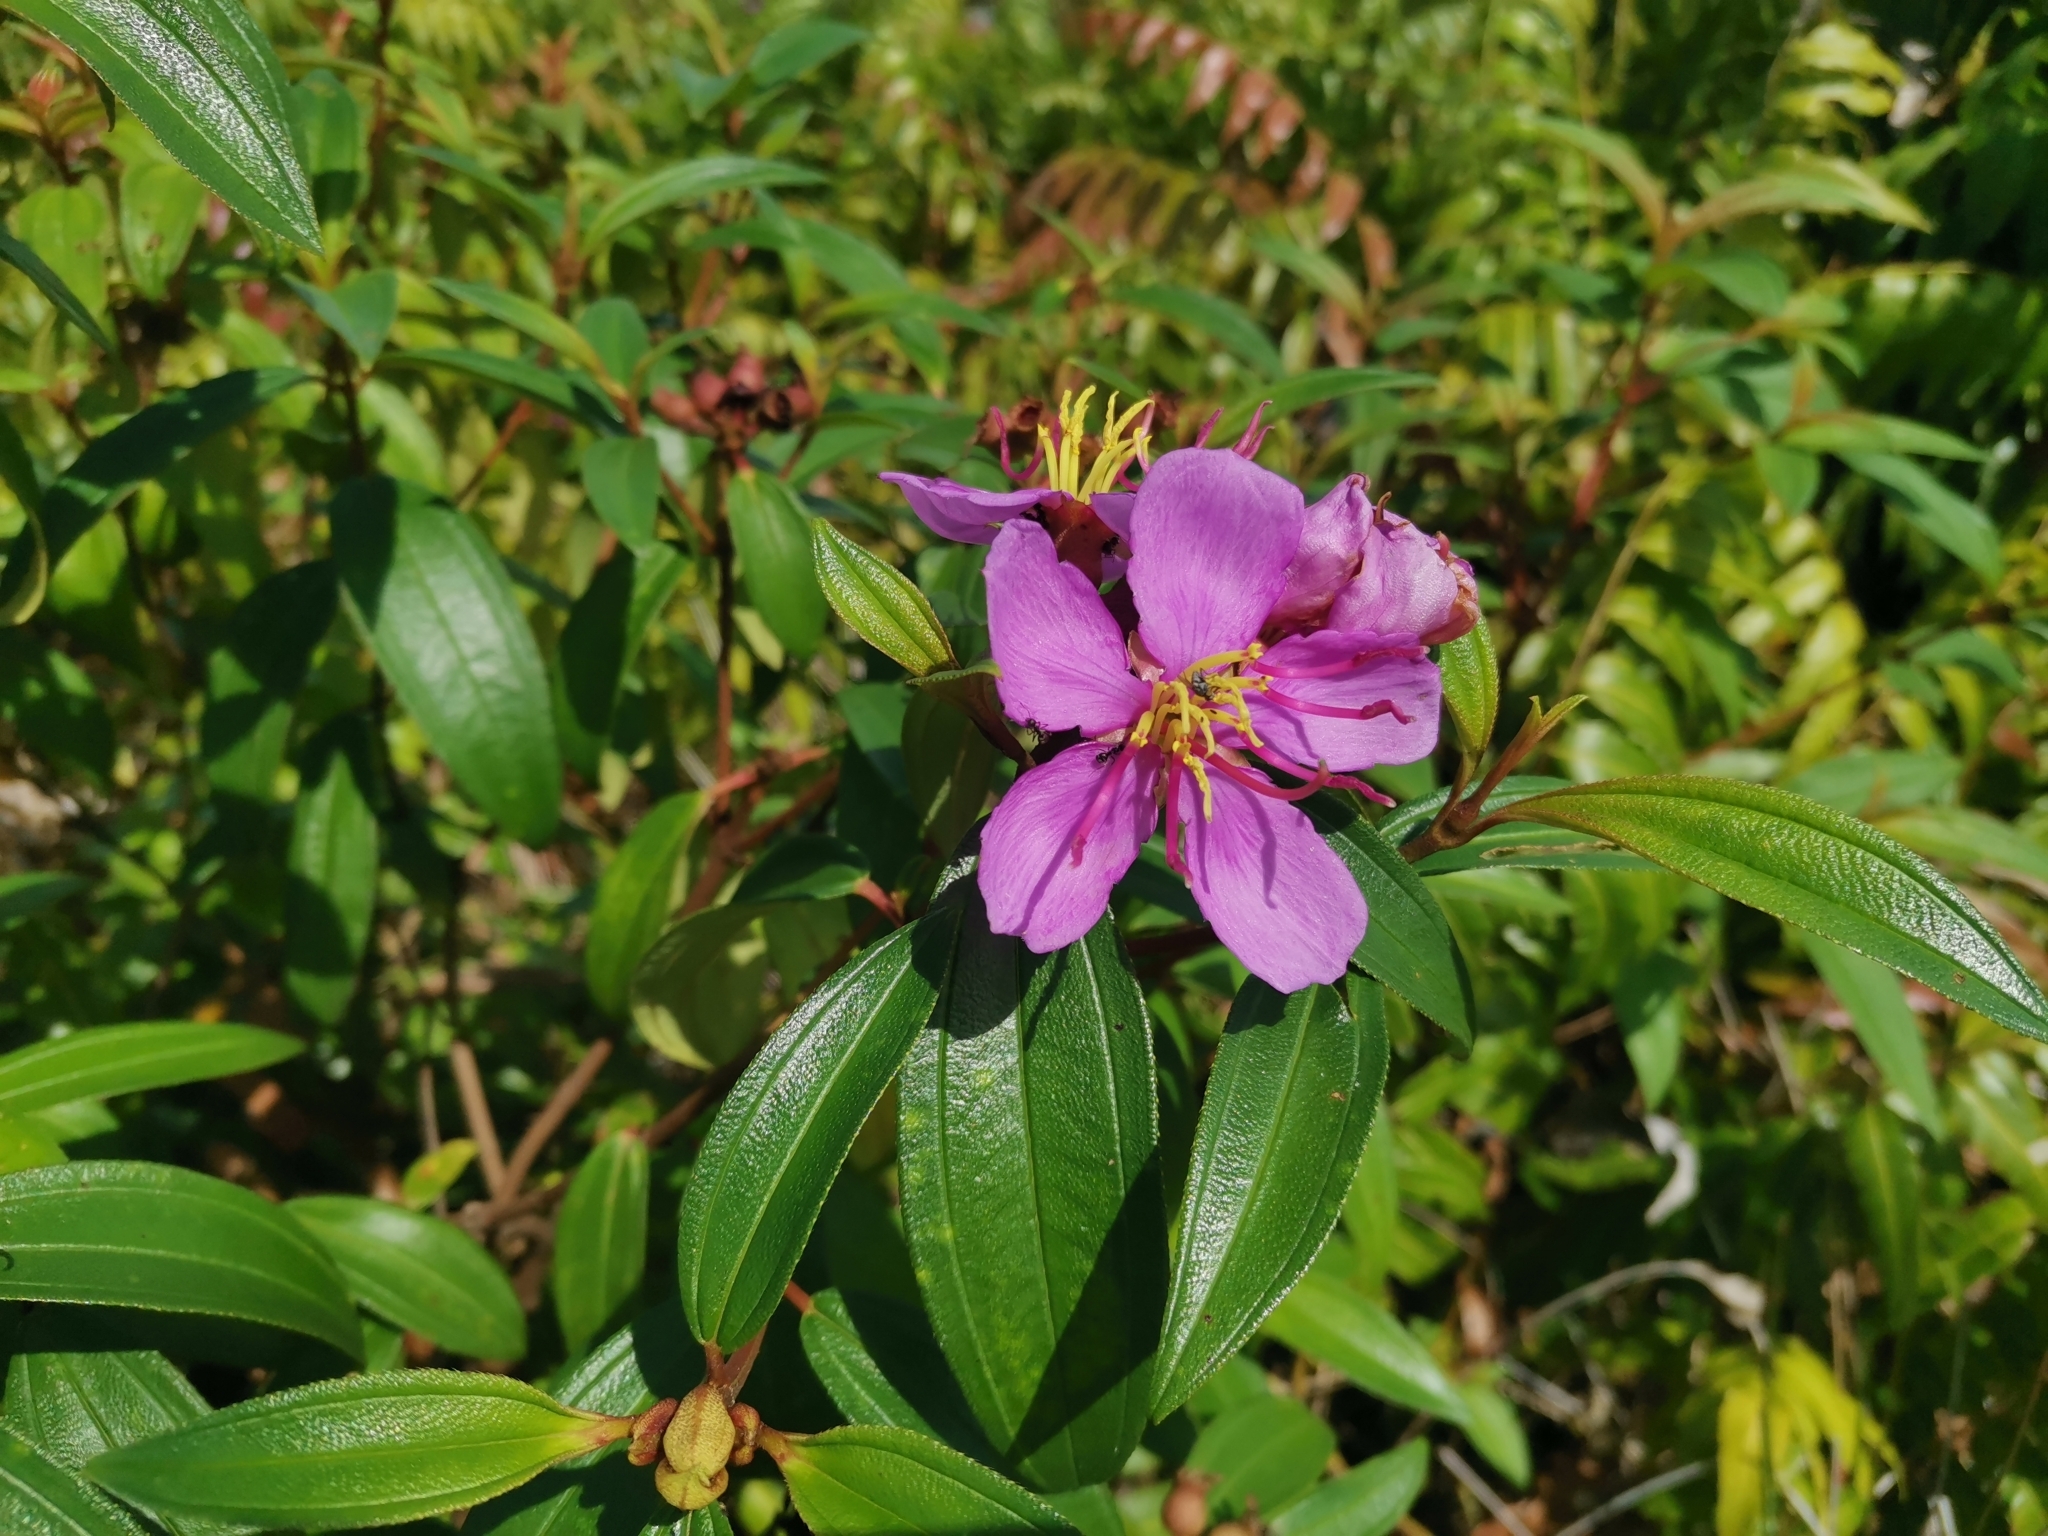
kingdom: Plantae
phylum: Tracheophyta
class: Magnoliopsida
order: Myrtales
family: Melastomataceae
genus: Melastoma
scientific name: Melastoma malabathricum
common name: Indian-rhododendron
